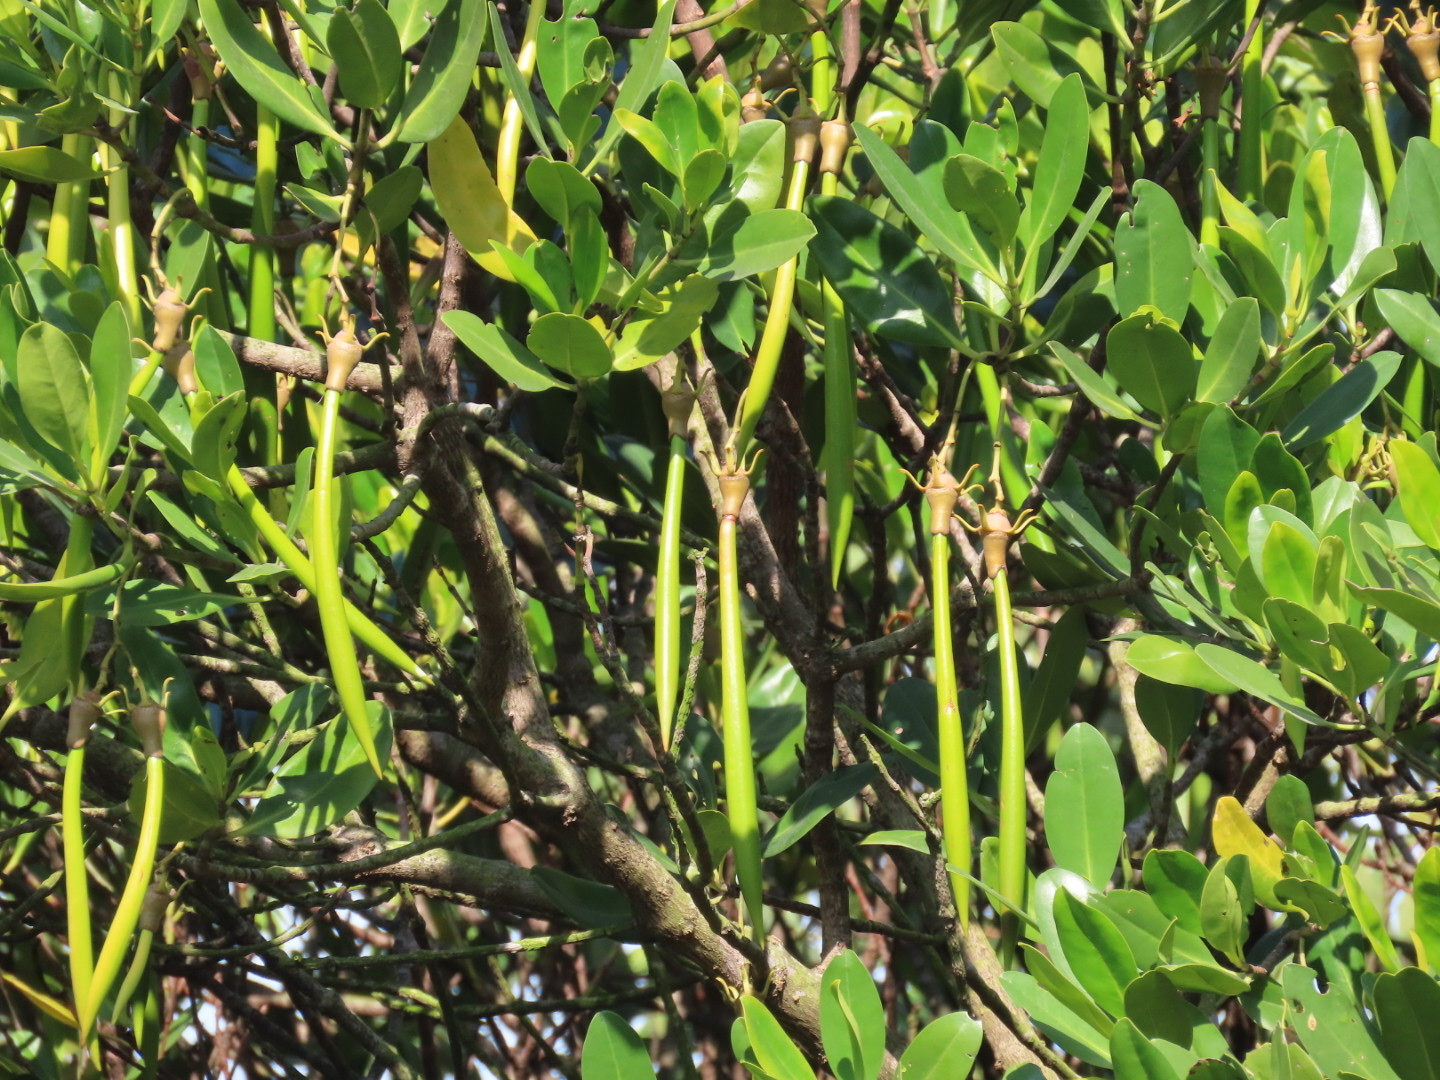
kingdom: Plantae
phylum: Tracheophyta
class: Magnoliopsida
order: Malpighiales
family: Rhizophoraceae
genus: Kandelia
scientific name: Kandelia obovata
